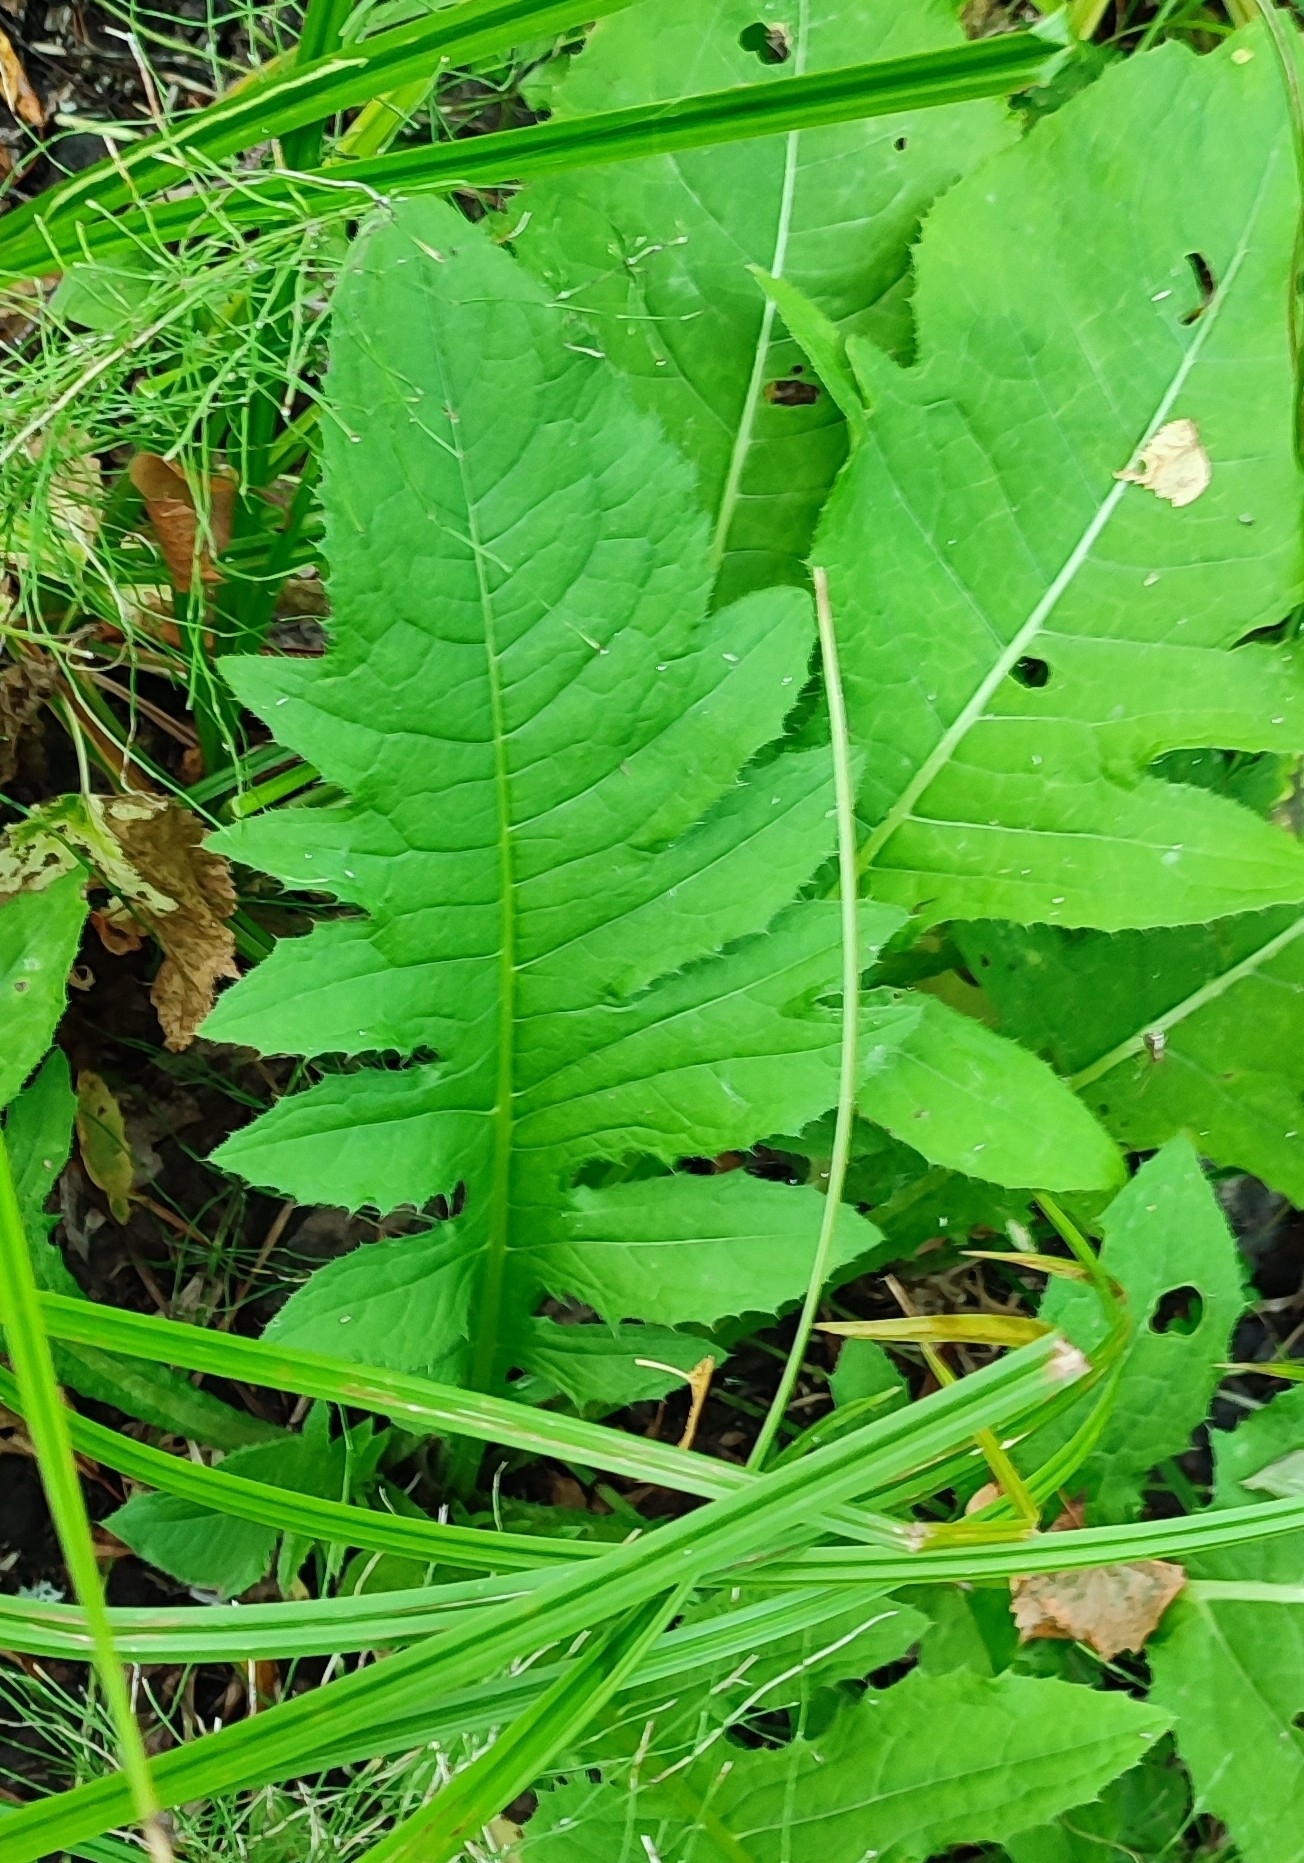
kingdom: Plantae
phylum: Tracheophyta
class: Magnoliopsida
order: Asterales
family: Asteraceae
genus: Cirsium
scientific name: Cirsium oleraceum
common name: Cabbage thistle
